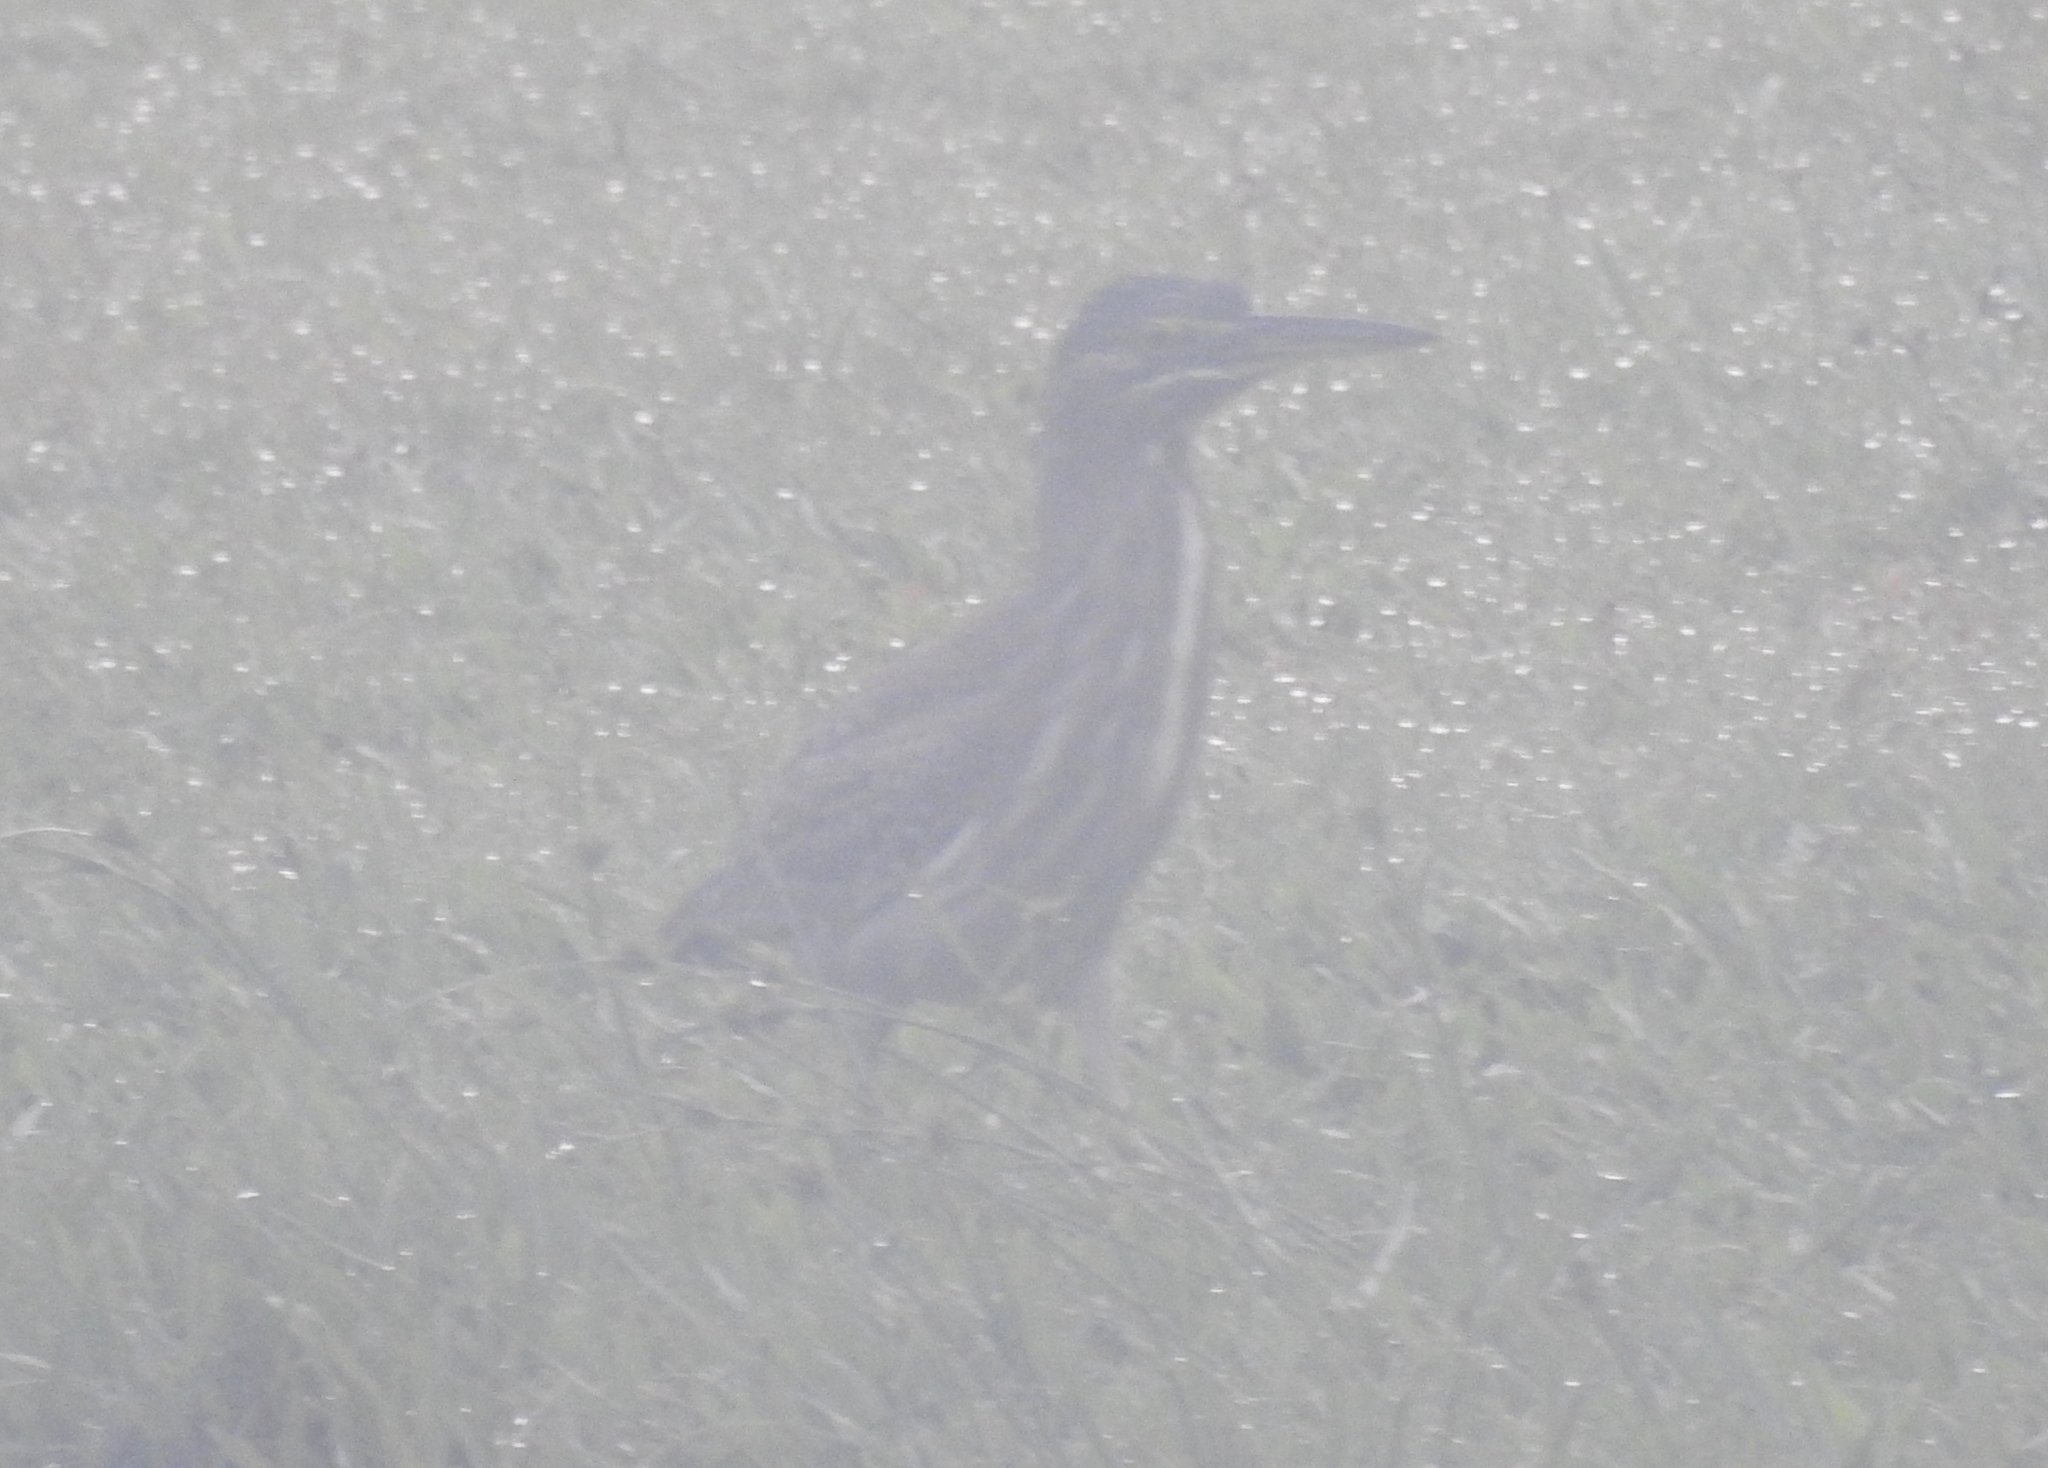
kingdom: Animalia
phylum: Chordata
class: Aves
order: Pelecaniformes
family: Ardeidae
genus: Butorides
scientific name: Butorides striata
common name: Striated heron
